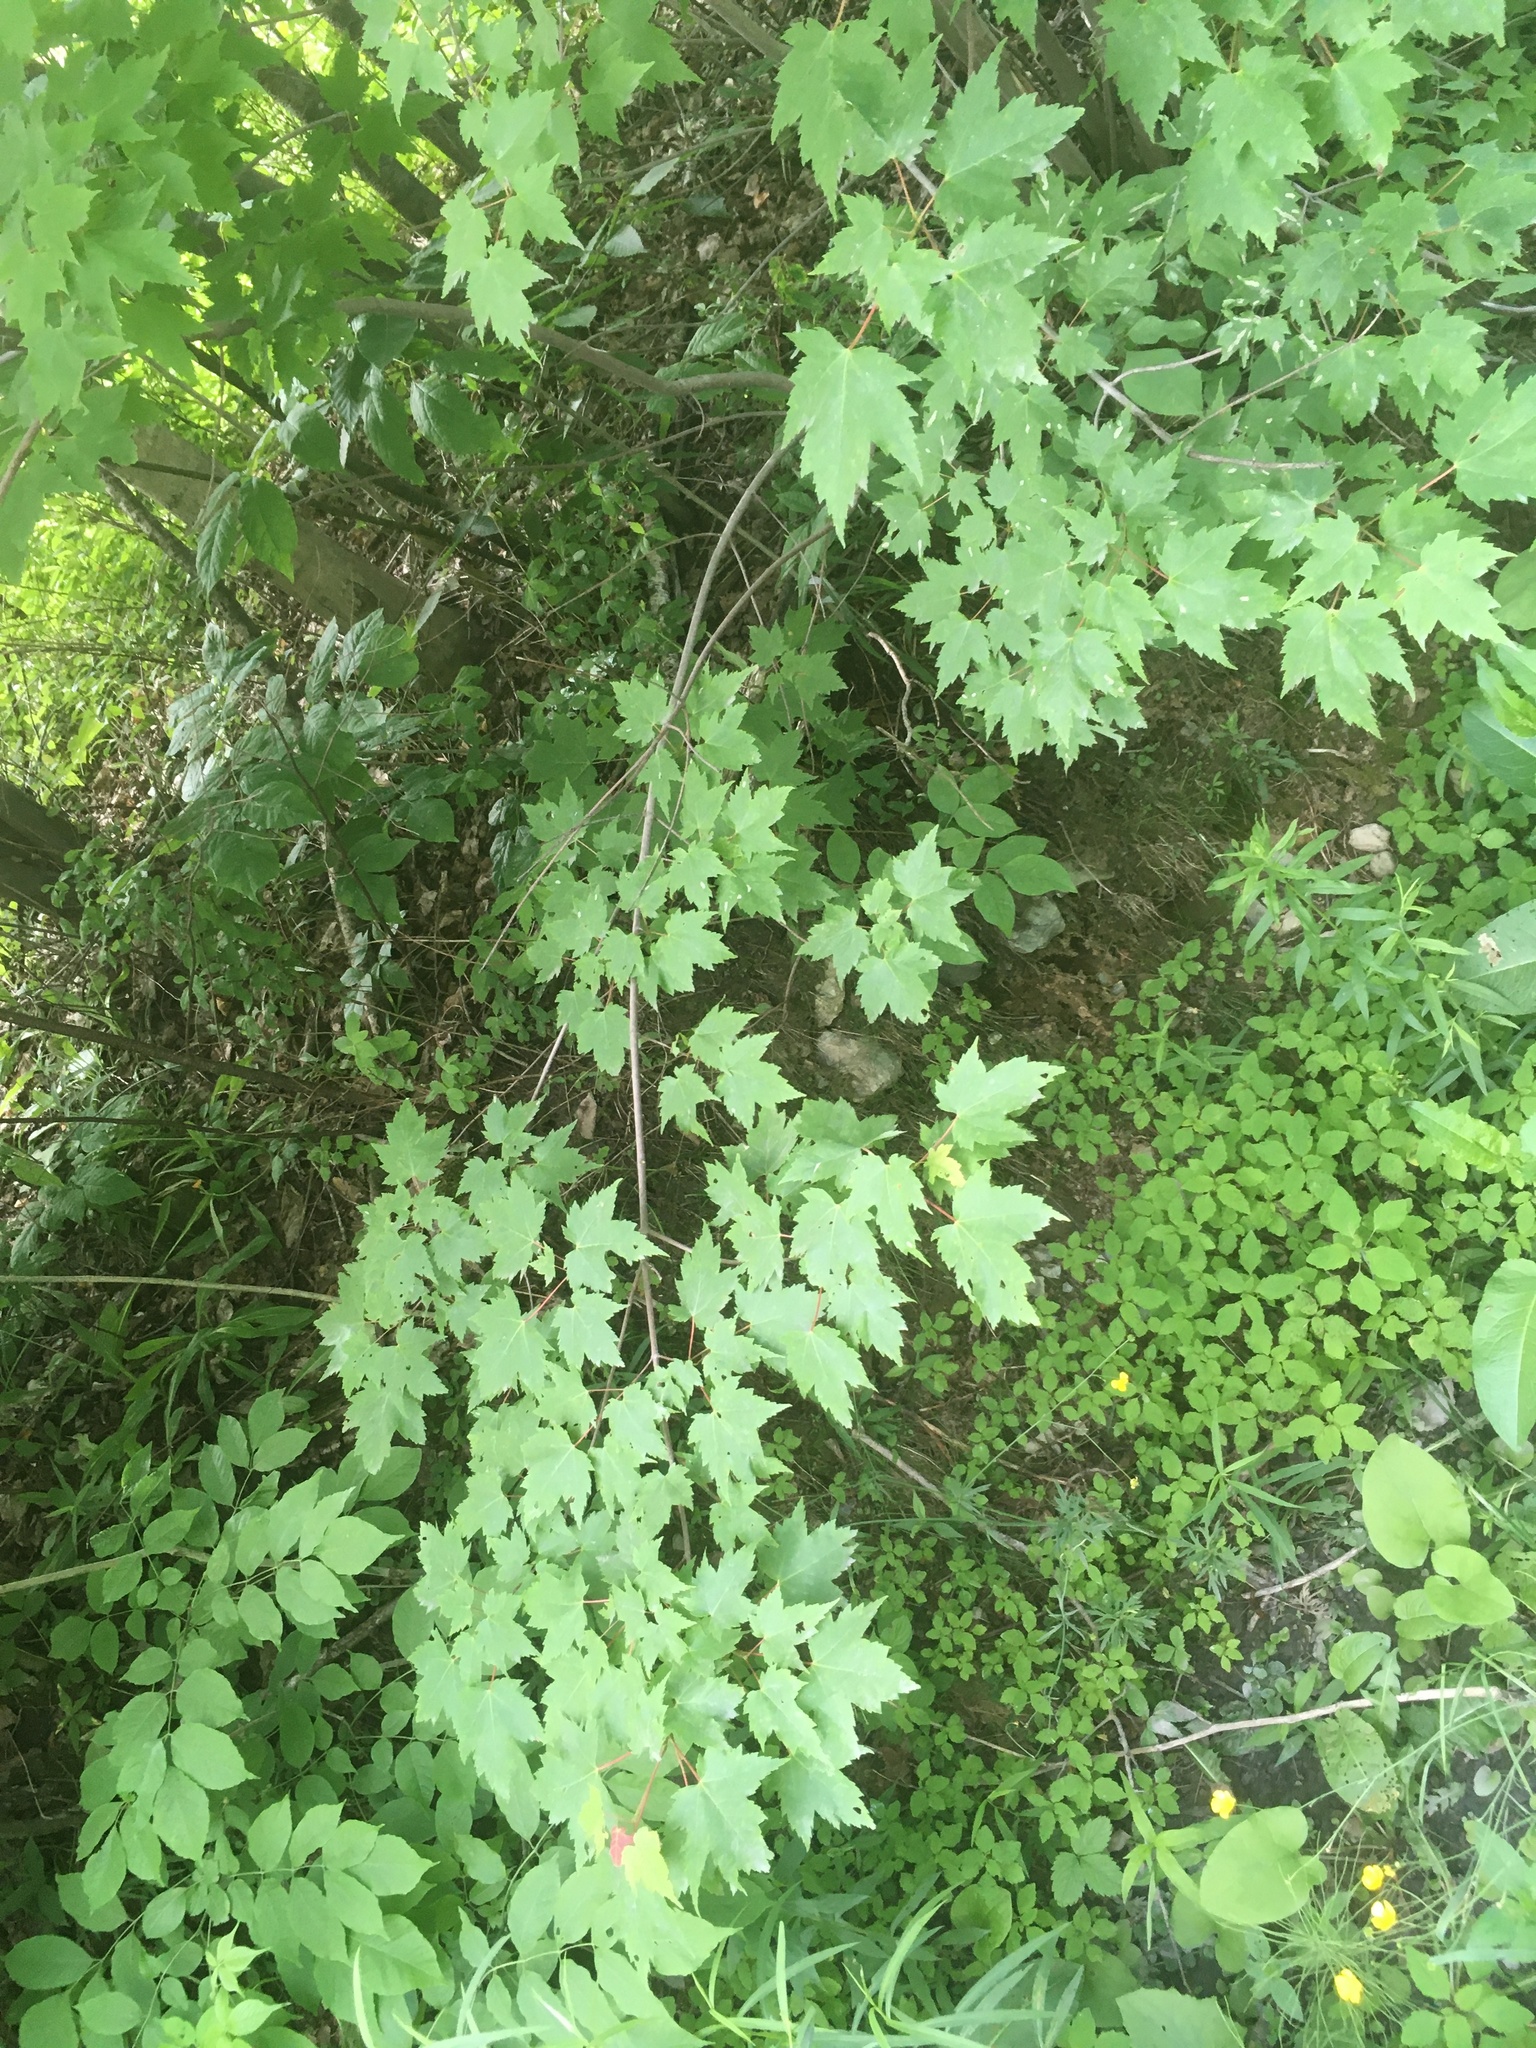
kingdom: Plantae
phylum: Tracheophyta
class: Magnoliopsida
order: Sapindales
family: Sapindaceae
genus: Acer
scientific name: Acer rubrum
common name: Red maple
